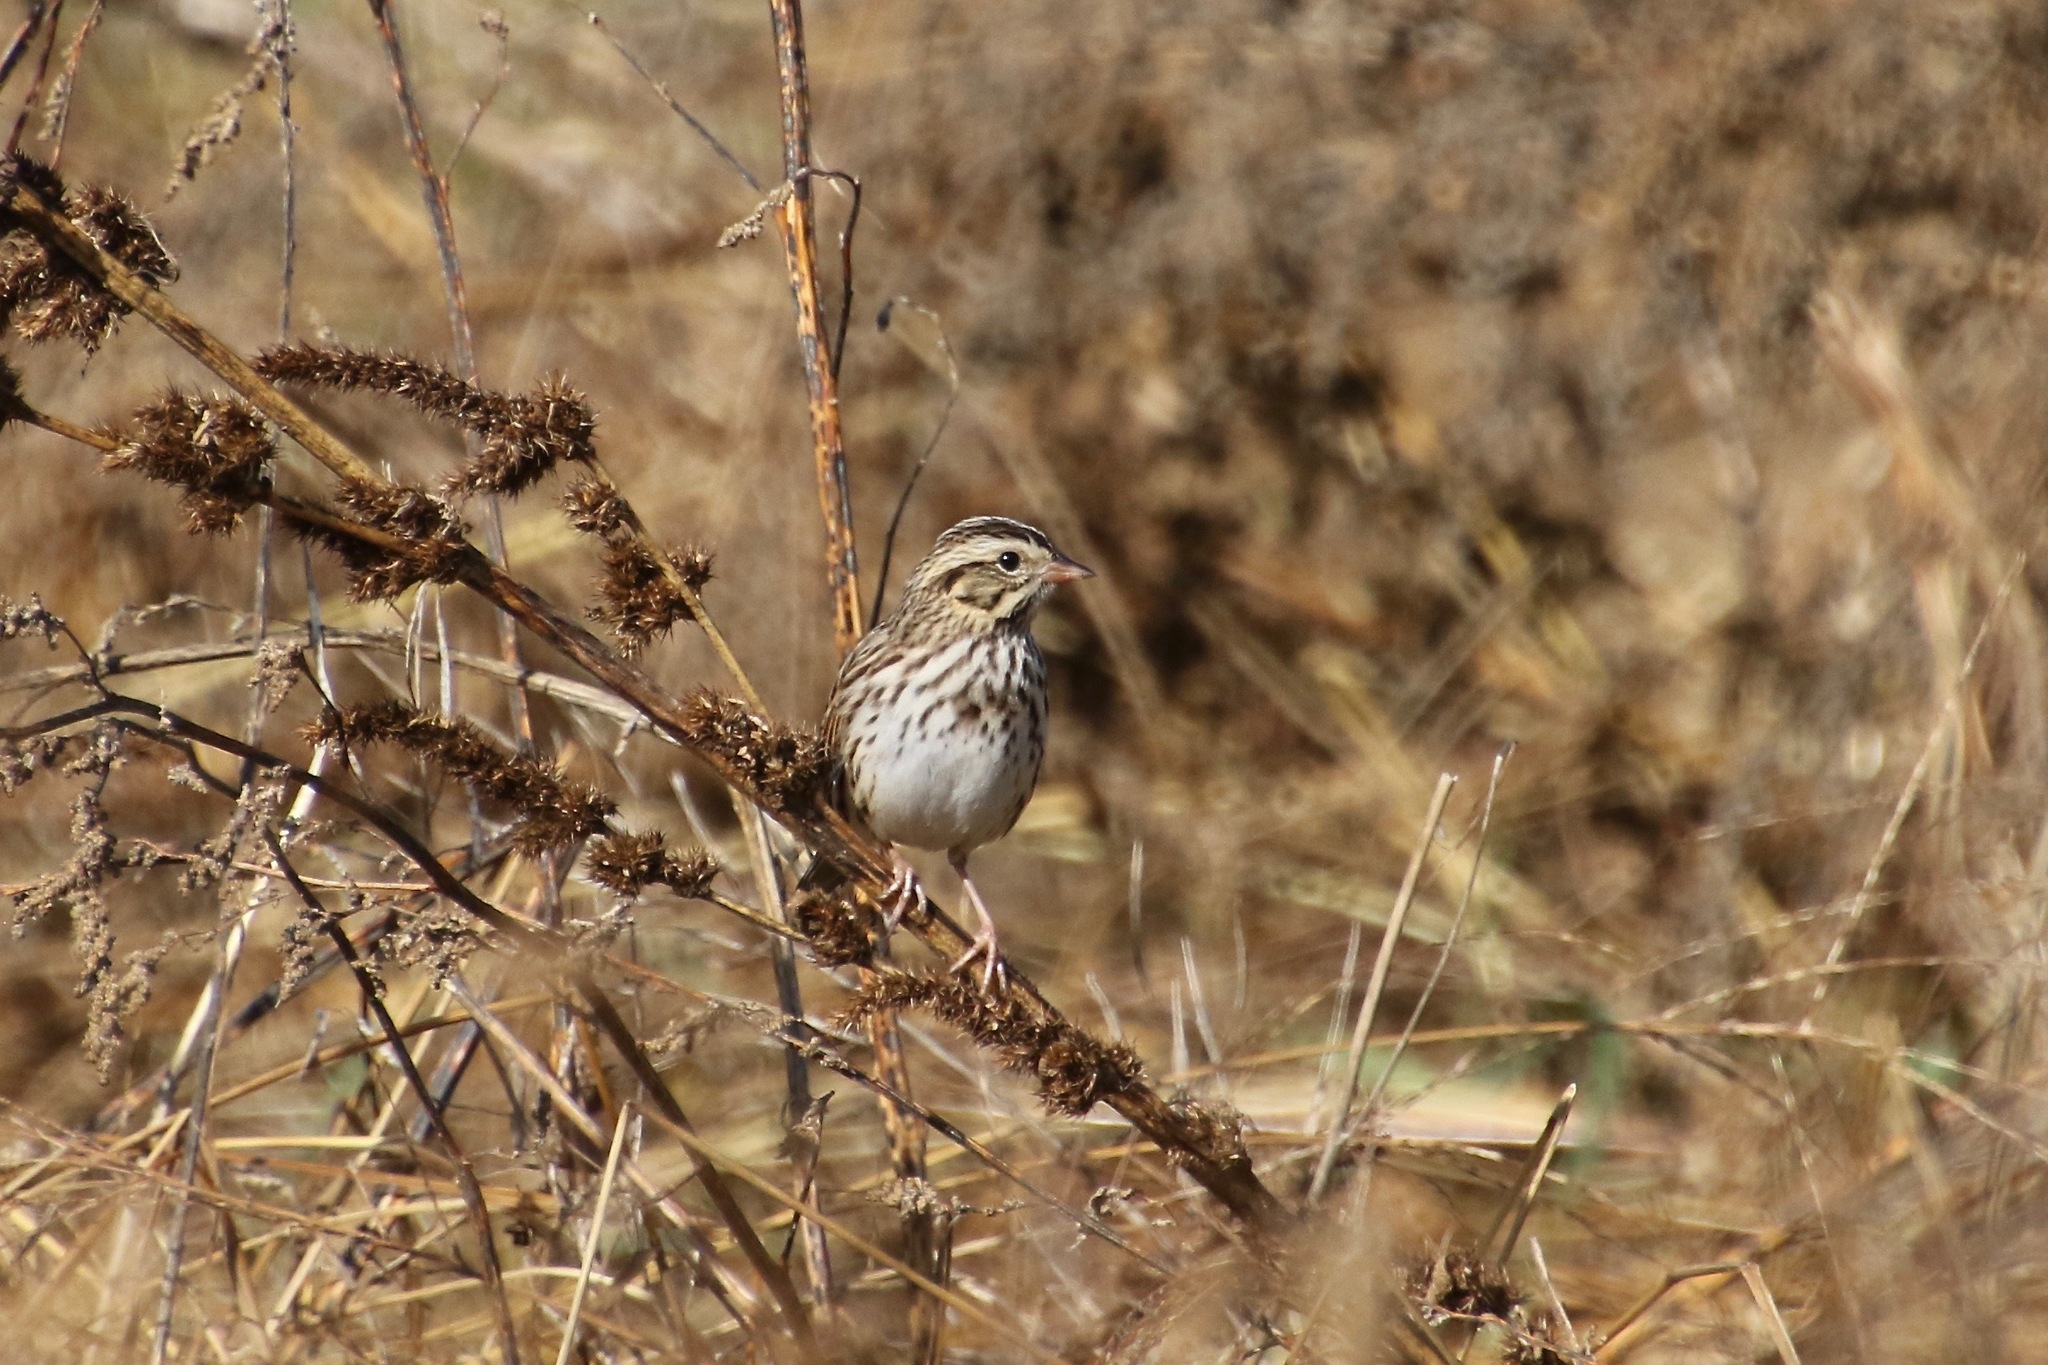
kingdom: Animalia
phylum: Chordata
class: Aves
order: Passeriformes
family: Passerellidae
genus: Passerculus
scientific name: Passerculus sandwichensis
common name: Savannah sparrow
